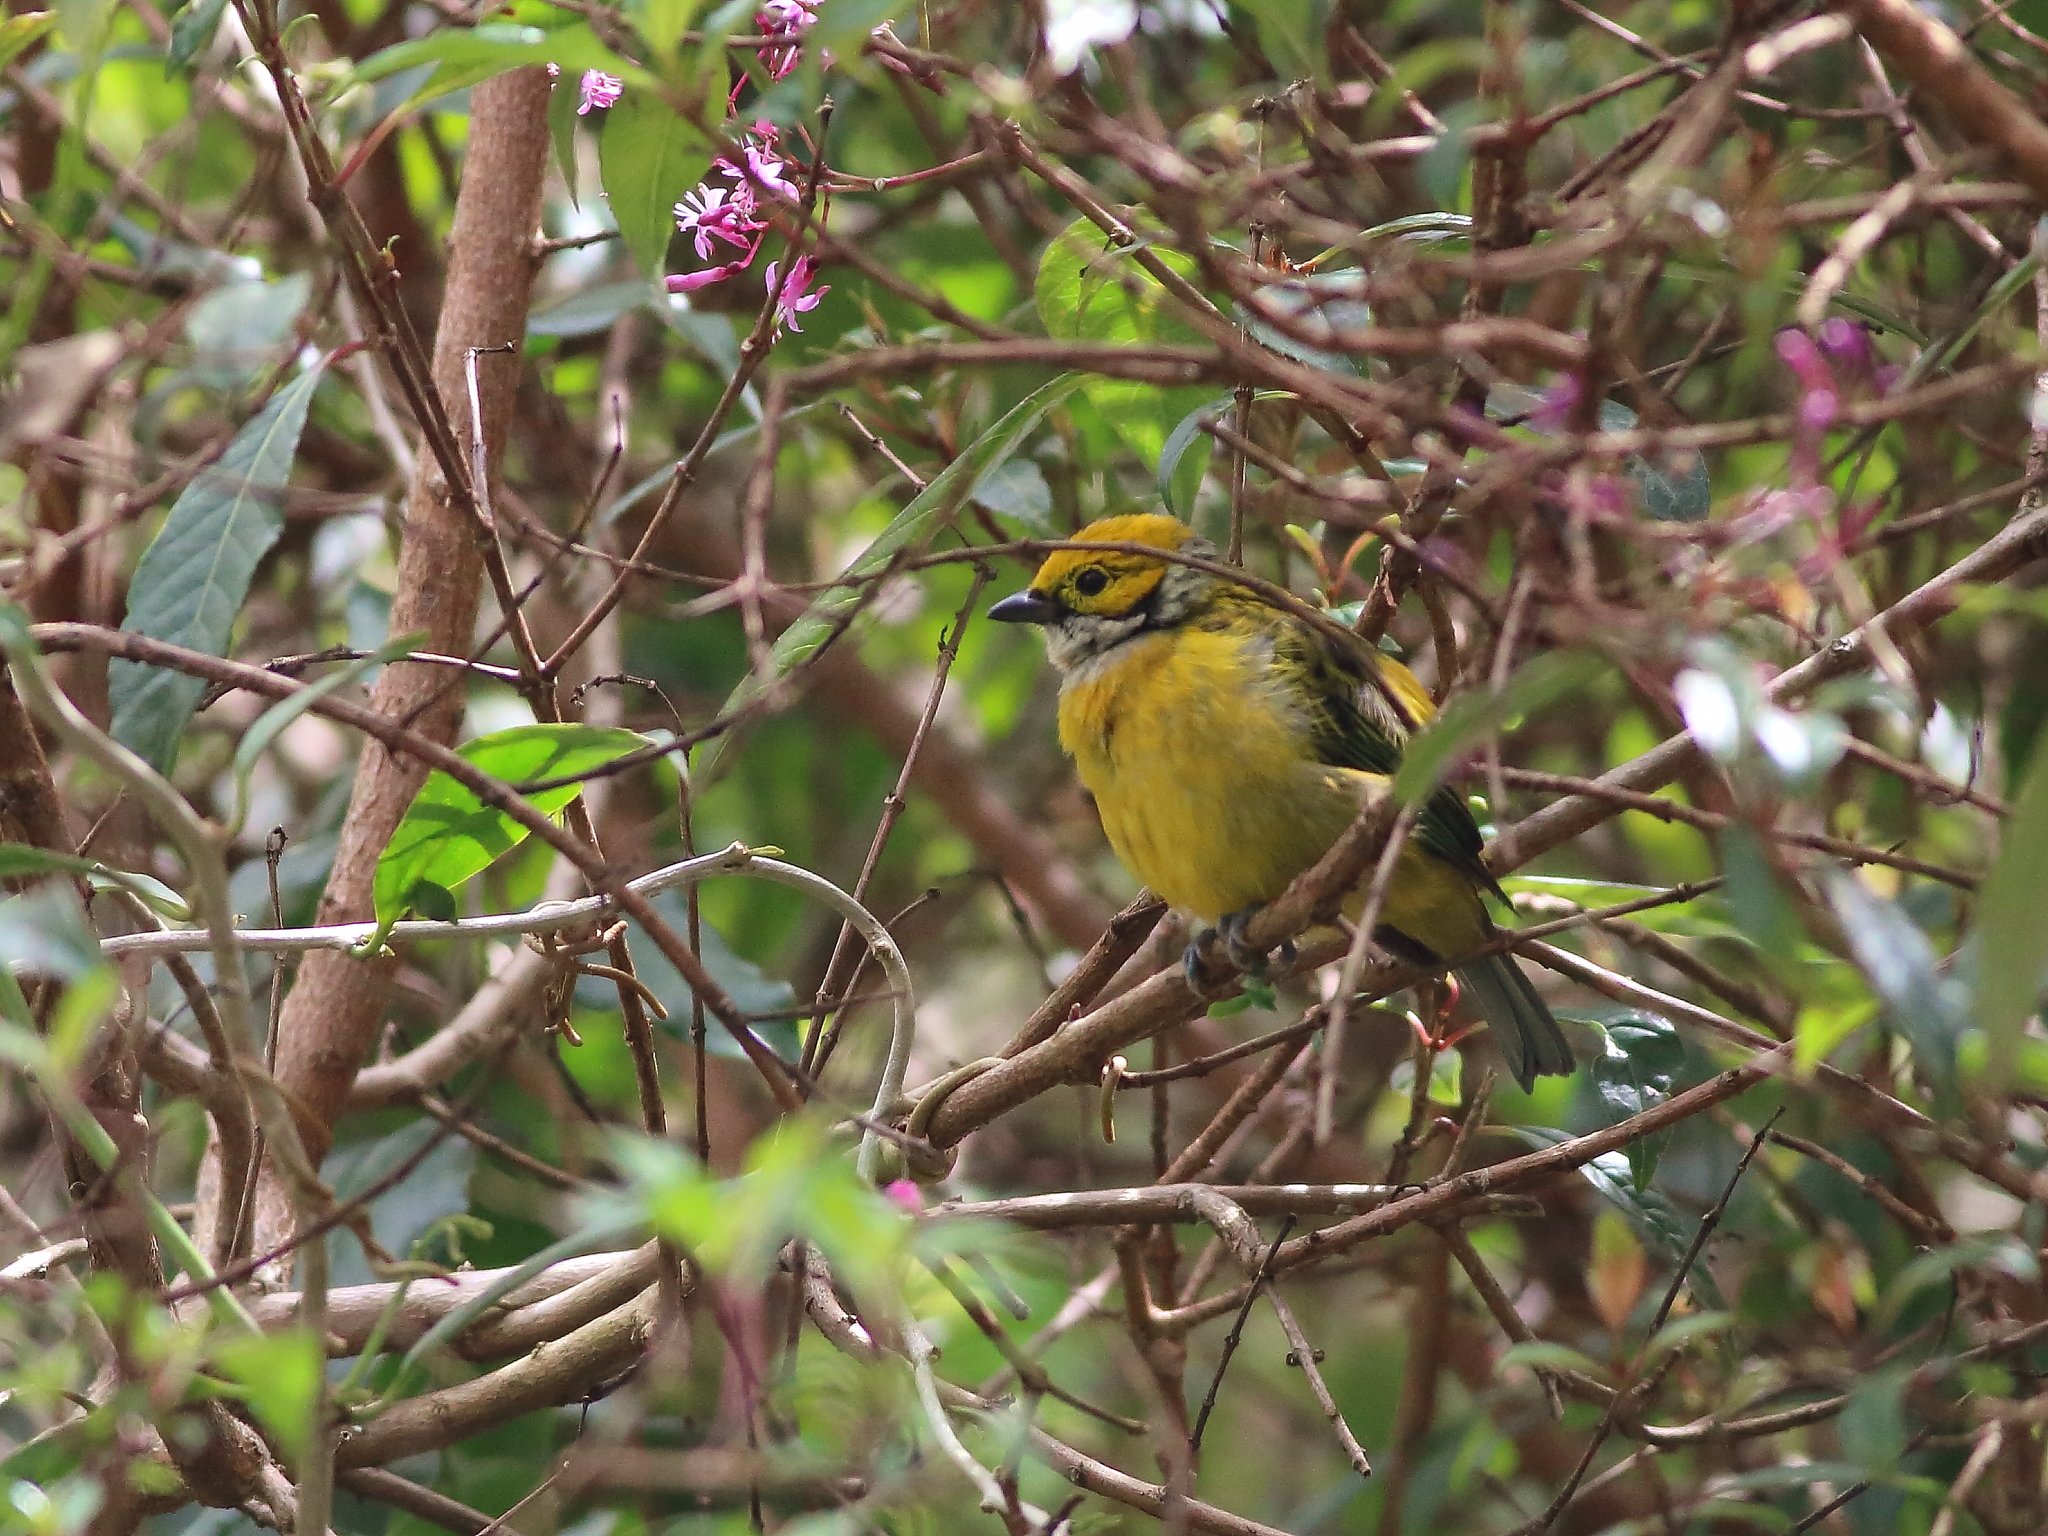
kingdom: Animalia
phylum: Chordata
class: Aves
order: Passeriformes
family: Thraupidae
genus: Tangara
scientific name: Tangara icterocephala
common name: Silver-throated tanager
